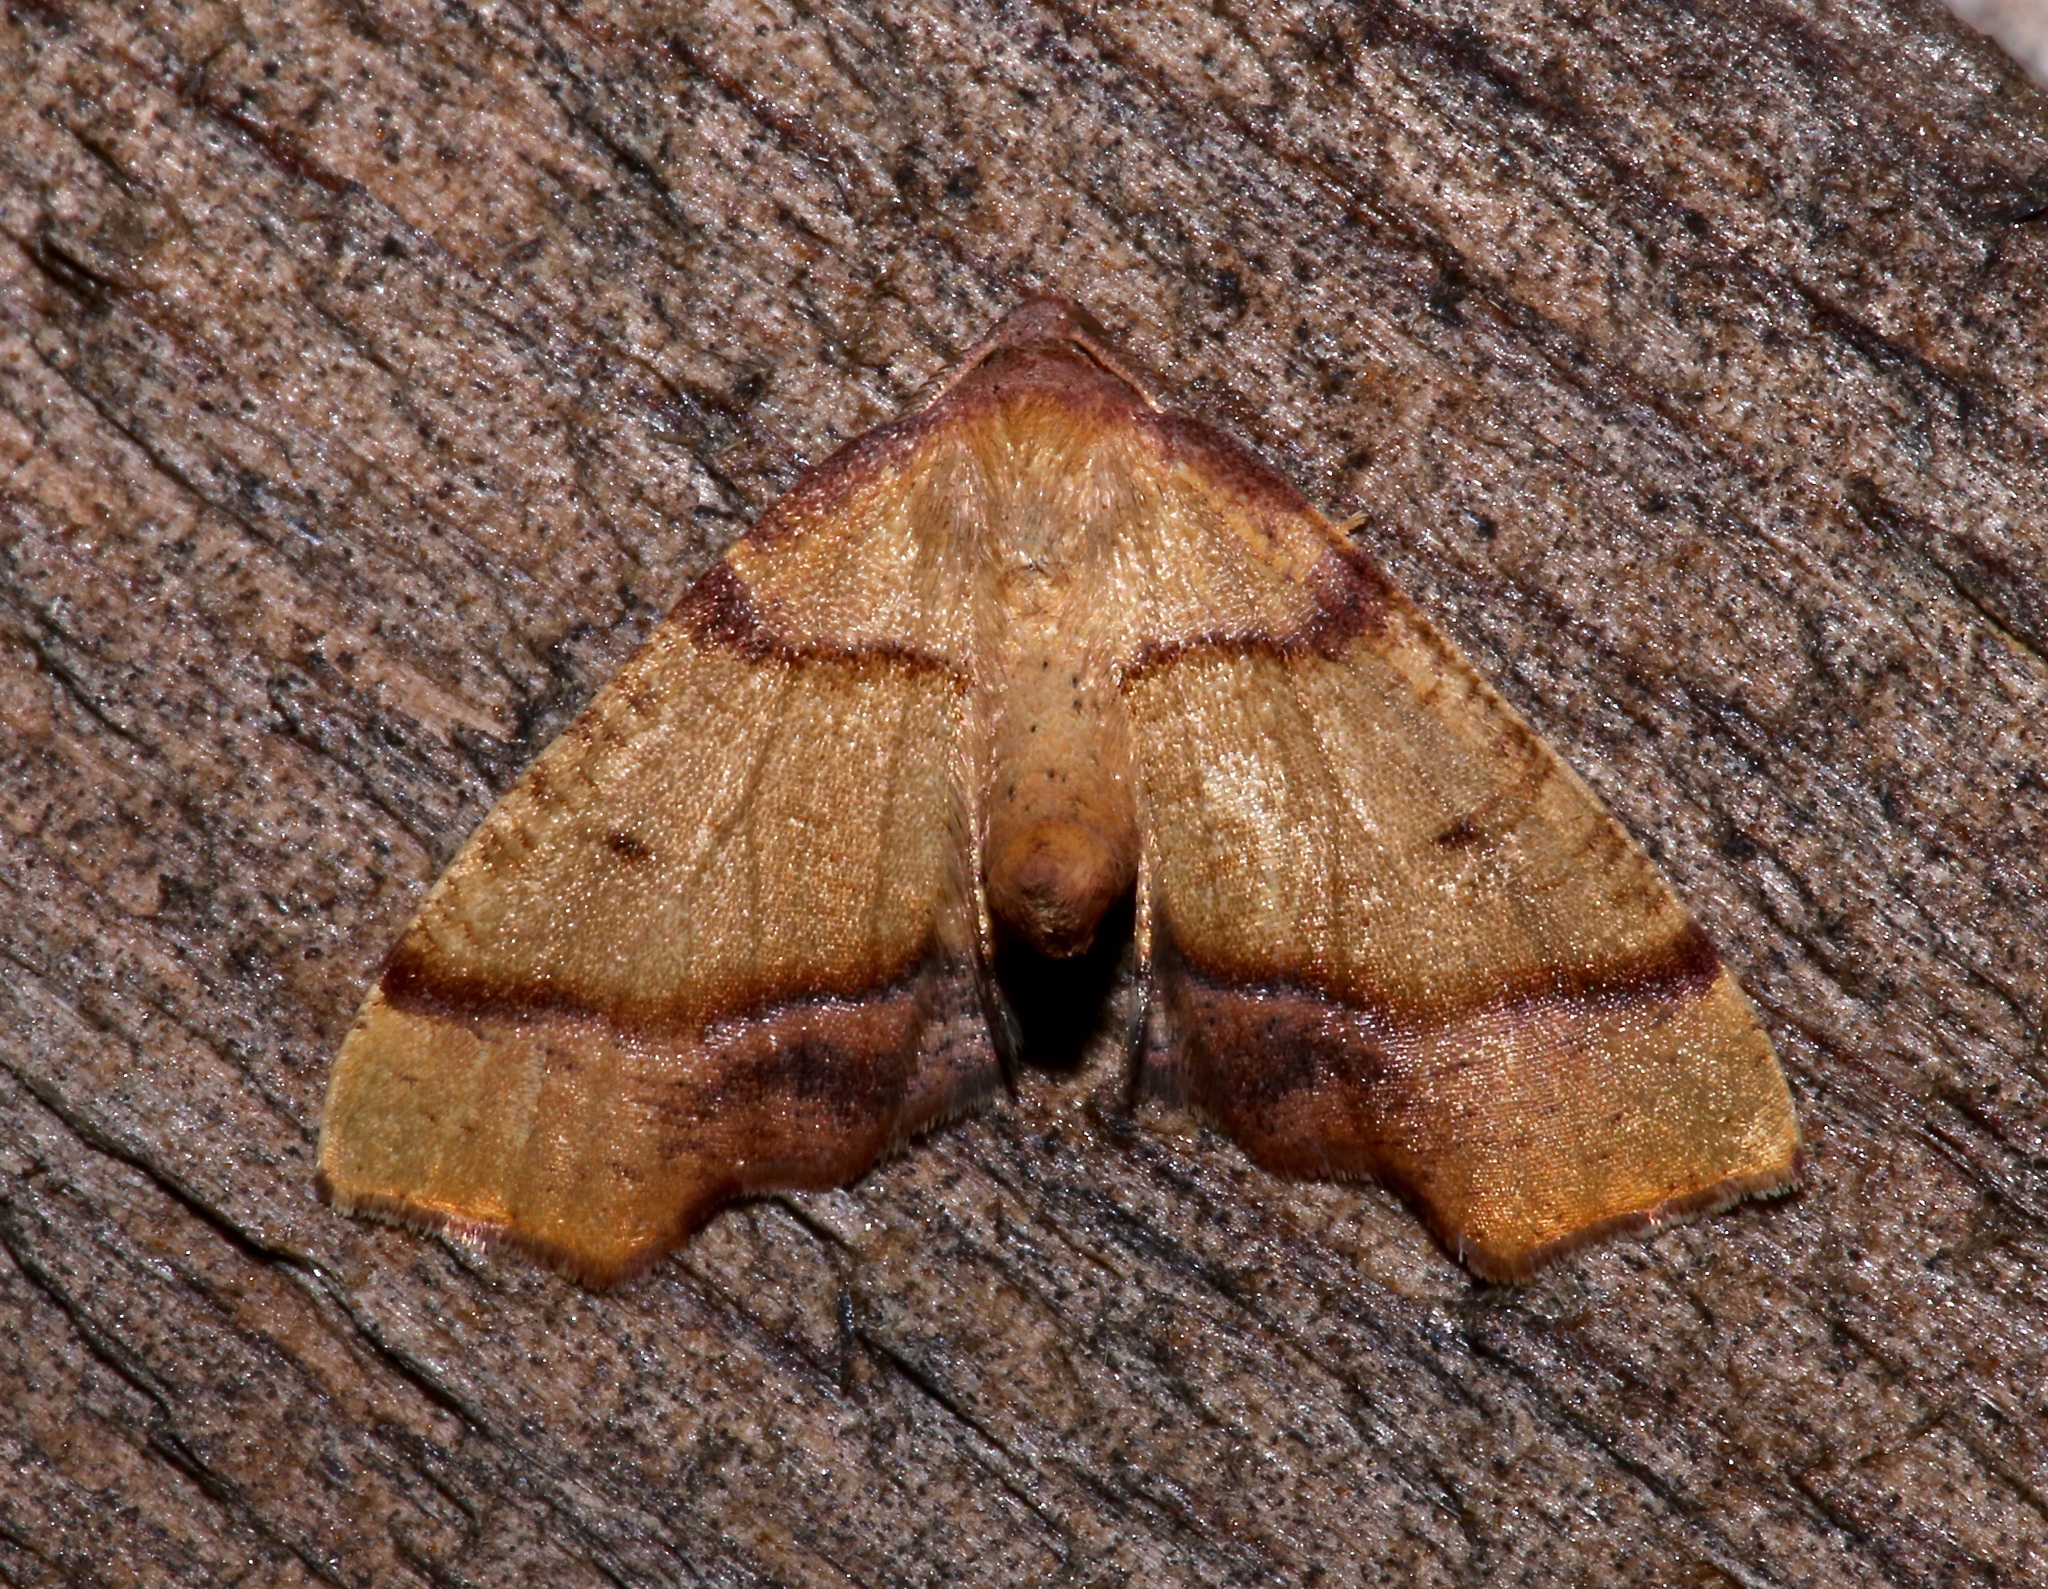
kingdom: Animalia
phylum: Arthropoda
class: Insecta
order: Lepidoptera
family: Geometridae
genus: Plagodis
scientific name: Plagodis phlogosaria
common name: Straight-lined plagodis
